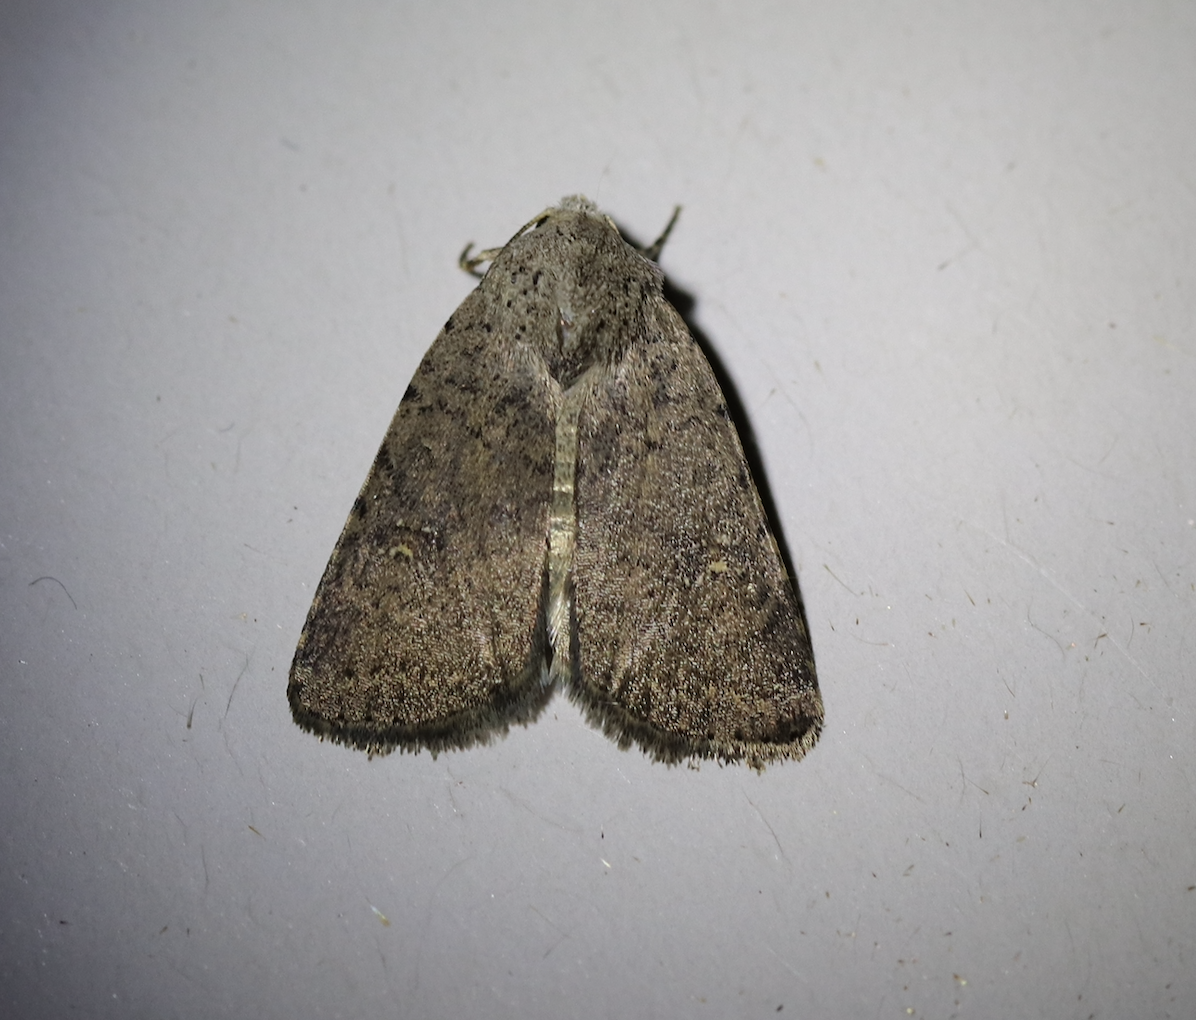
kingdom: Animalia
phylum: Arthropoda
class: Insecta
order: Lepidoptera
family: Noctuidae
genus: Caradrina
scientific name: Caradrina flavirena
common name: Lorimer's rustic
